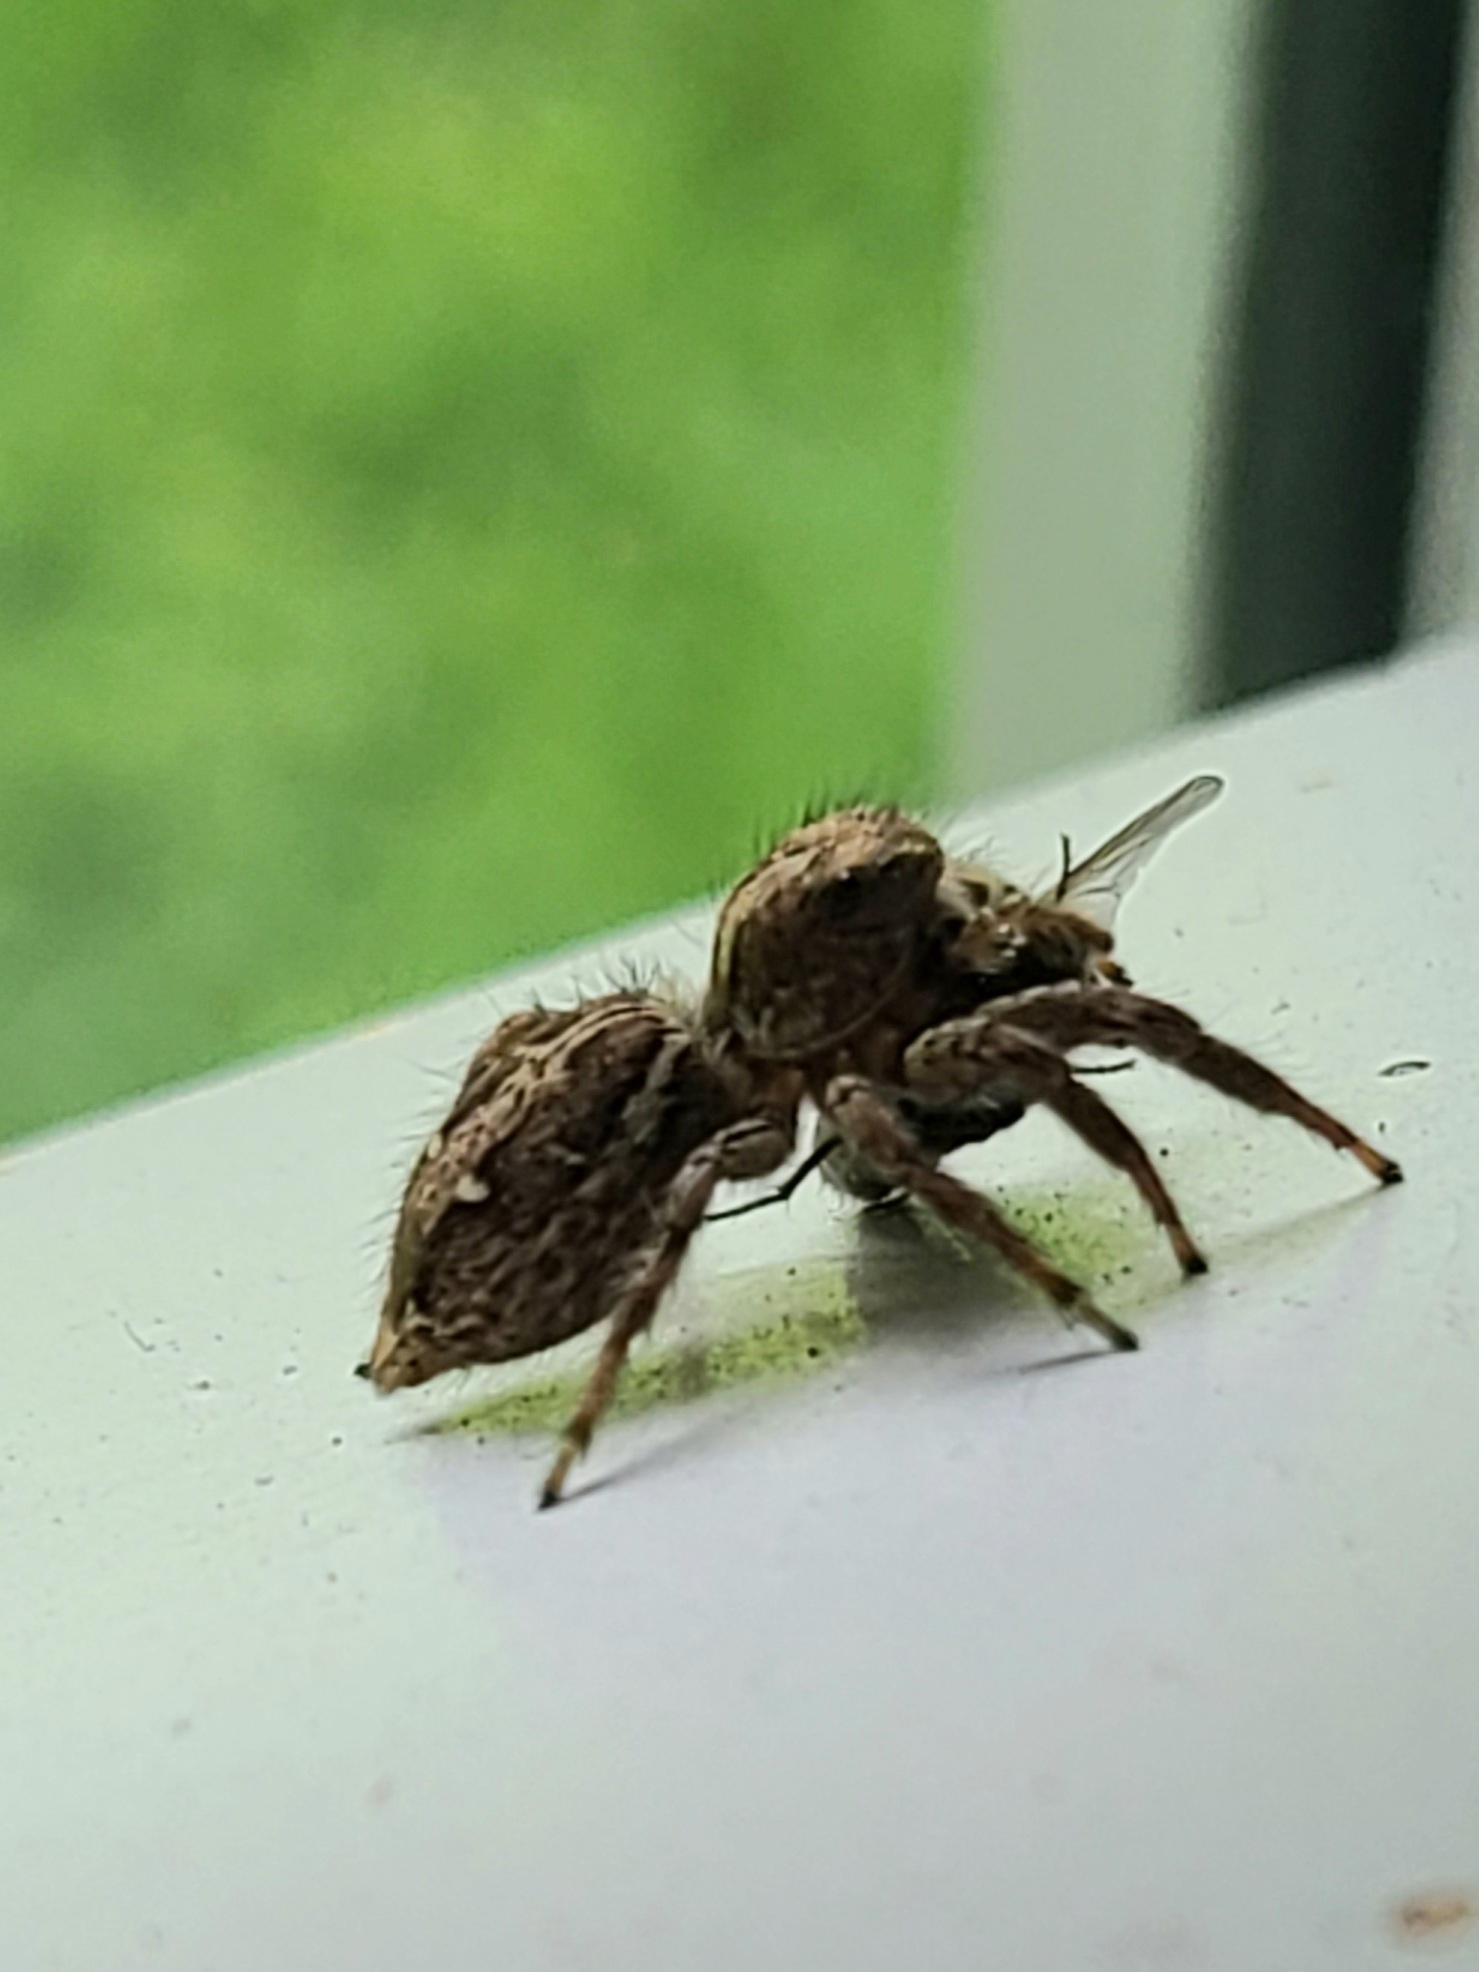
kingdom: Animalia
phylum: Arthropoda
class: Arachnida
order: Araneae
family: Salticidae
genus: Plexippus
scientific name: Plexippus paykulli
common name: Pantropical jumper
